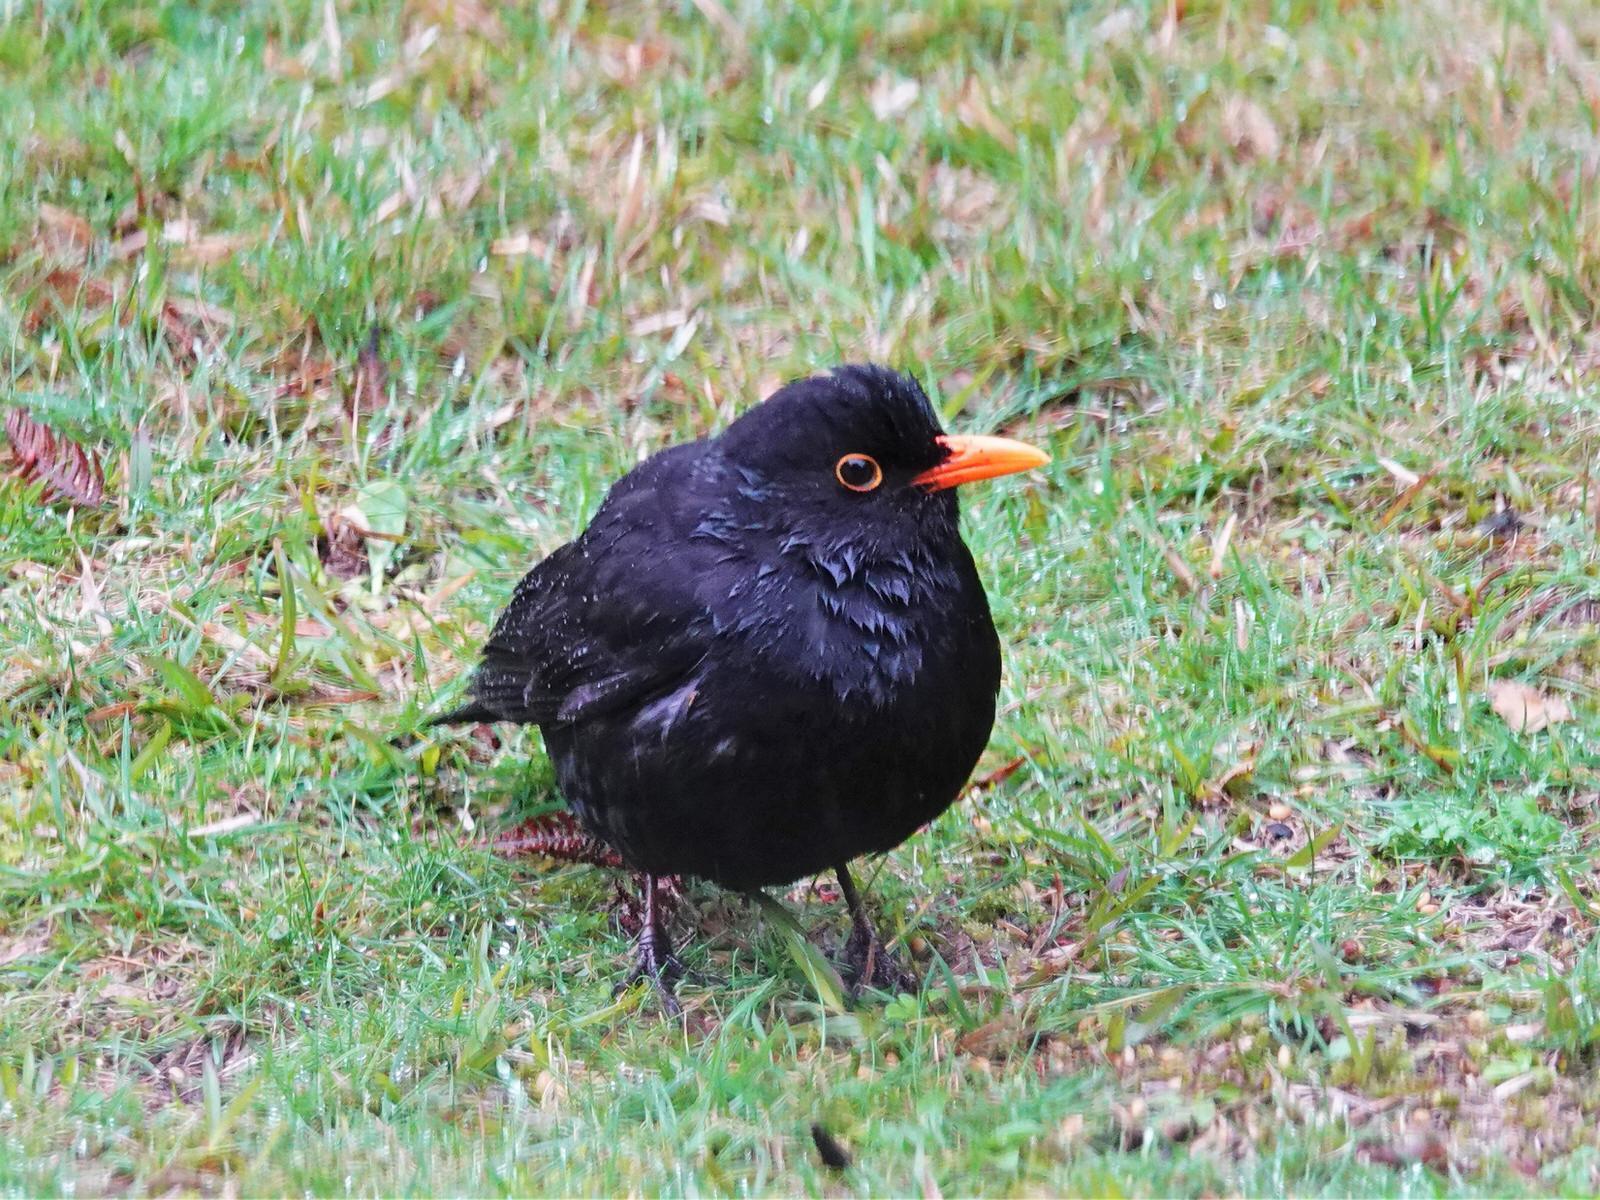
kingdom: Animalia
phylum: Chordata
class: Aves
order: Passeriformes
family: Turdidae
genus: Turdus
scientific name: Turdus merula
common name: Common blackbird
